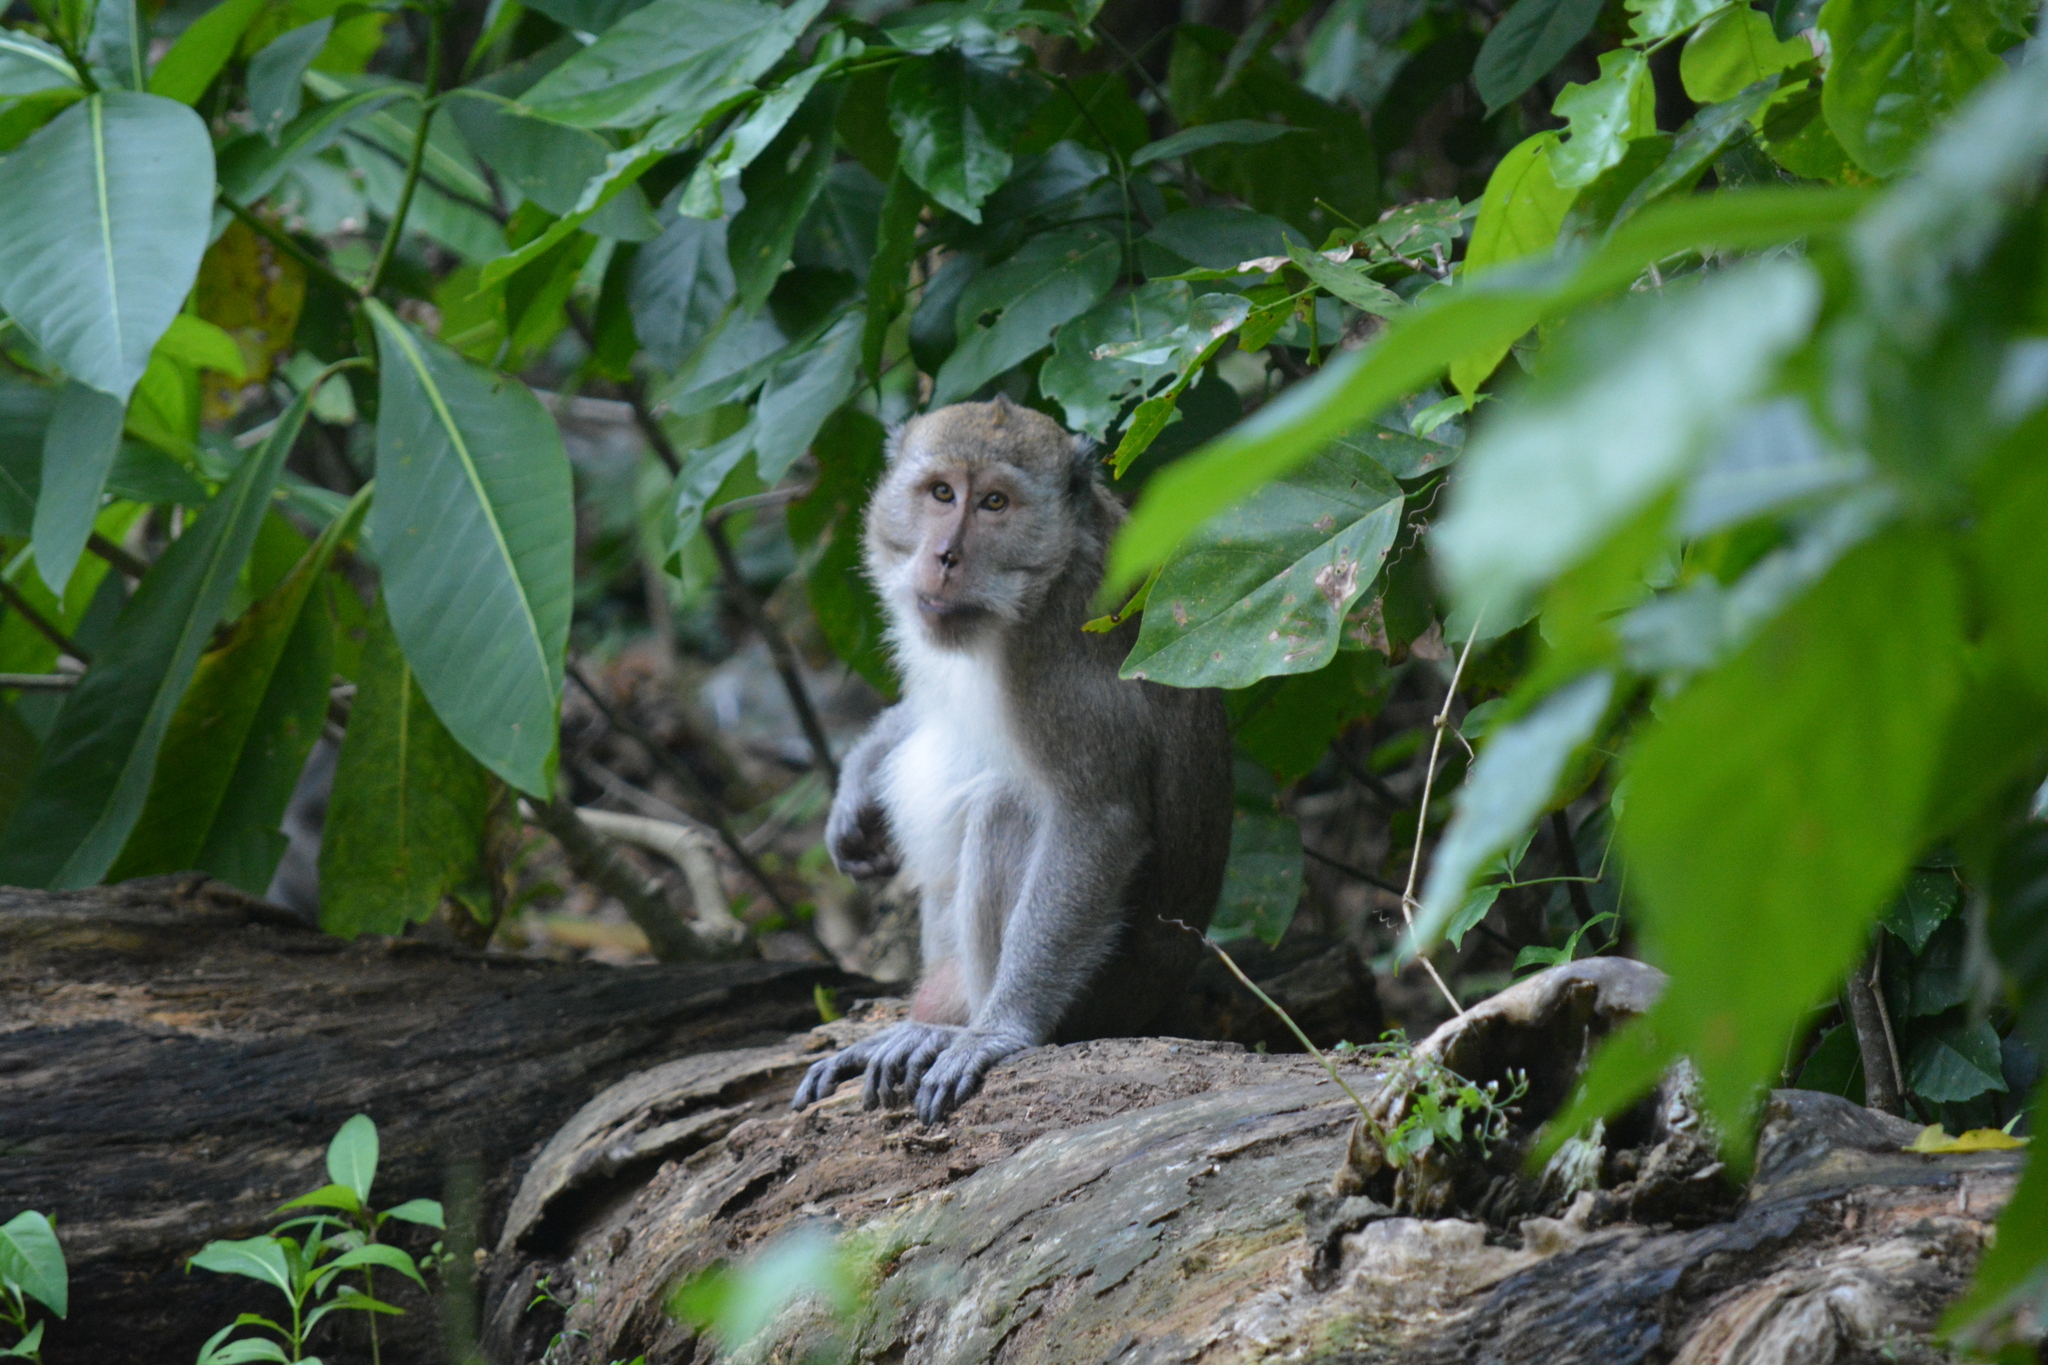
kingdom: Animalia
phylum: Chordata
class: Mammalia
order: Primates
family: Cercopithecidae
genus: Macaca
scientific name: Macaca fascicularis
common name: Crab-eating macaque
